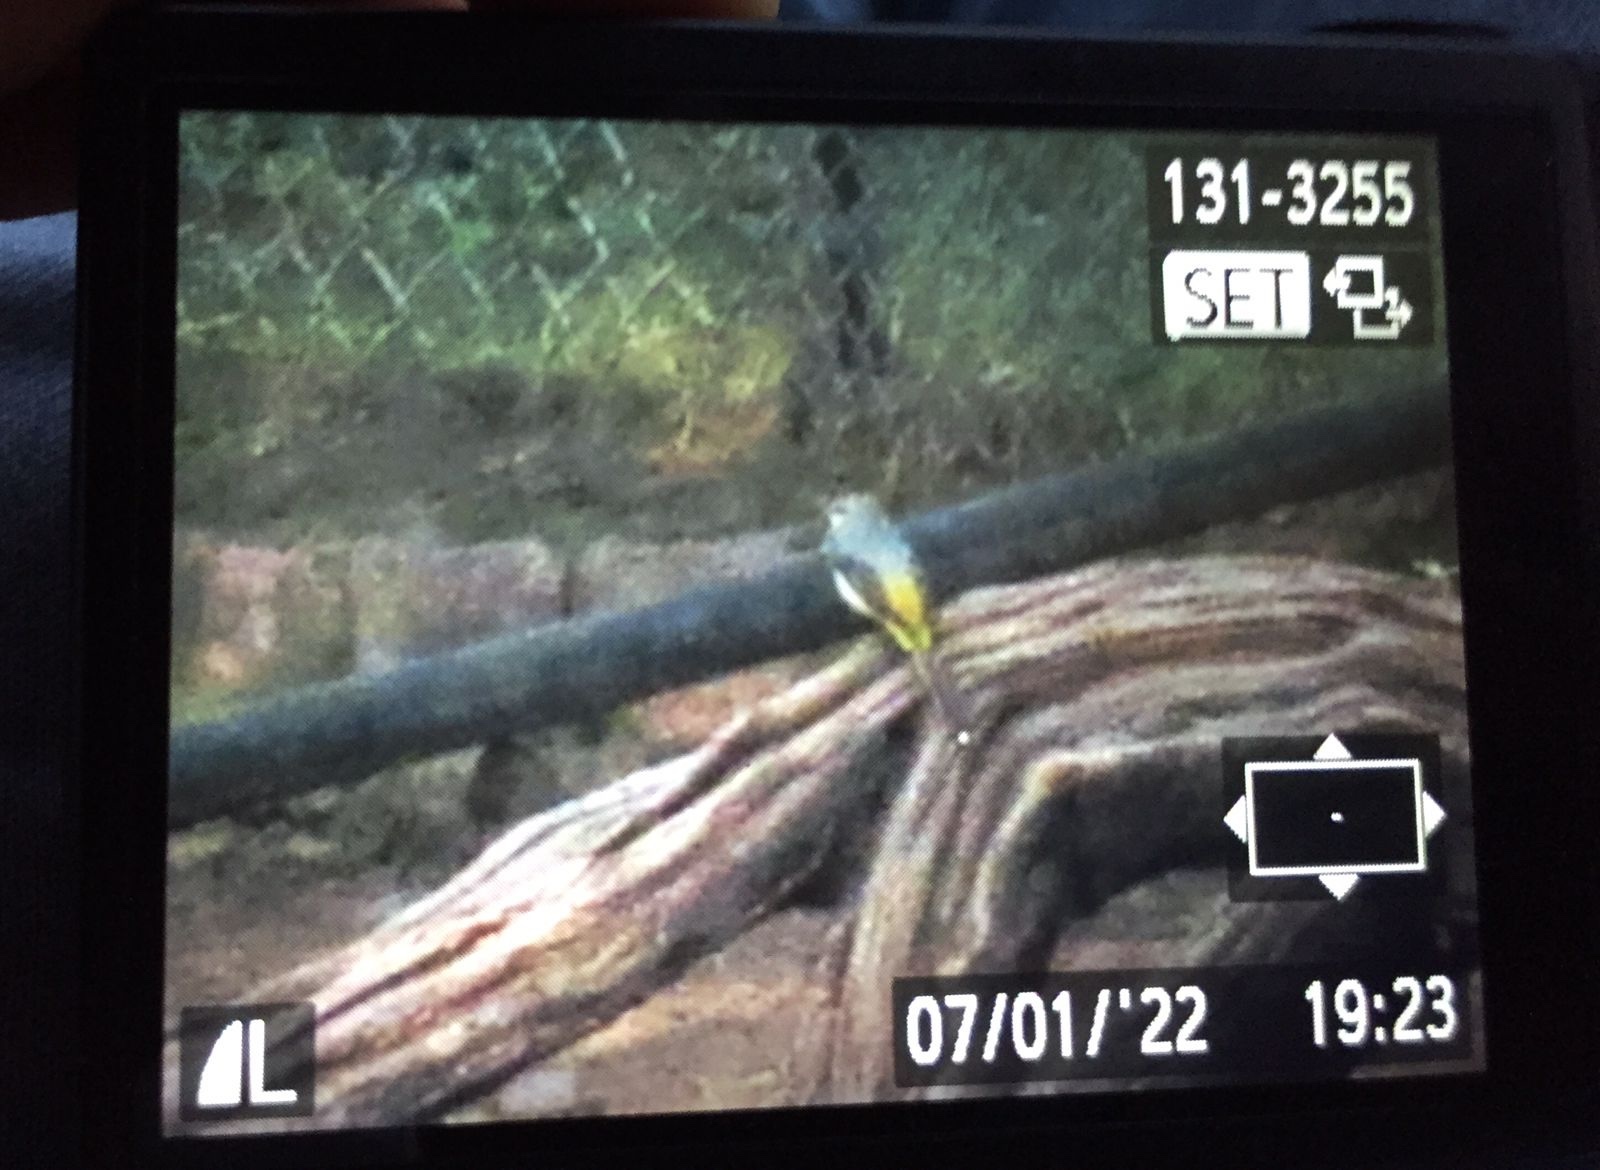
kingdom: Animalia
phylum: Chordata
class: Aves
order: Passeriformes
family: Motacillidae
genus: Motacilla
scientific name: Motacilla cinerea
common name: Grey wagtail
